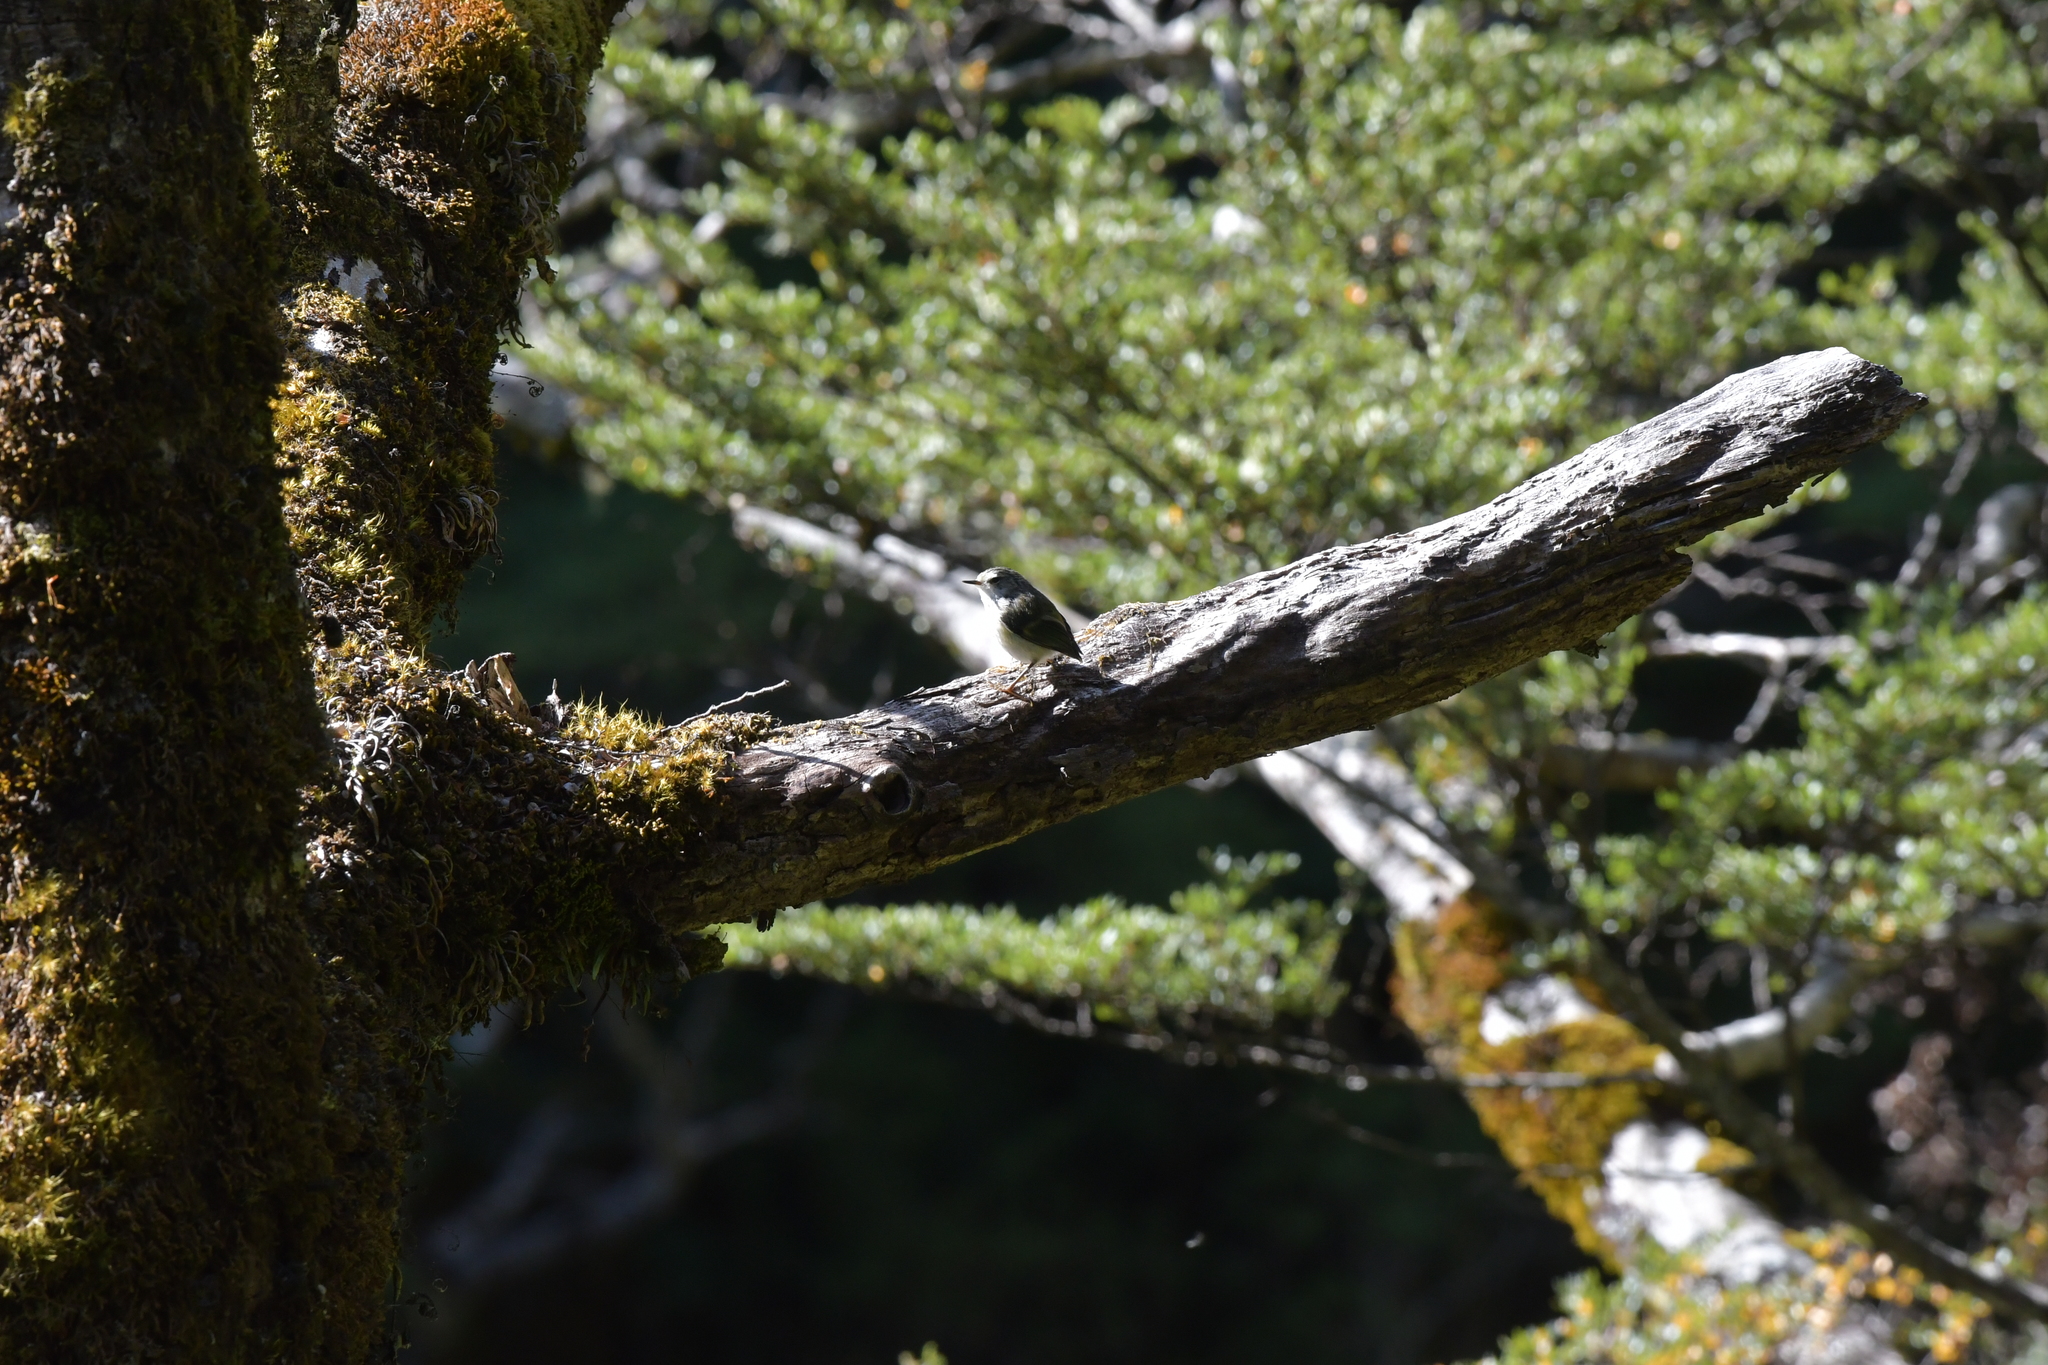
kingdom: Animalia
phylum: Chordata
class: Aves
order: Passeriformes
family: Acanthisittidae
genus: Acanthisitta
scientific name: Acanthisitta chloris
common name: Rifleman
